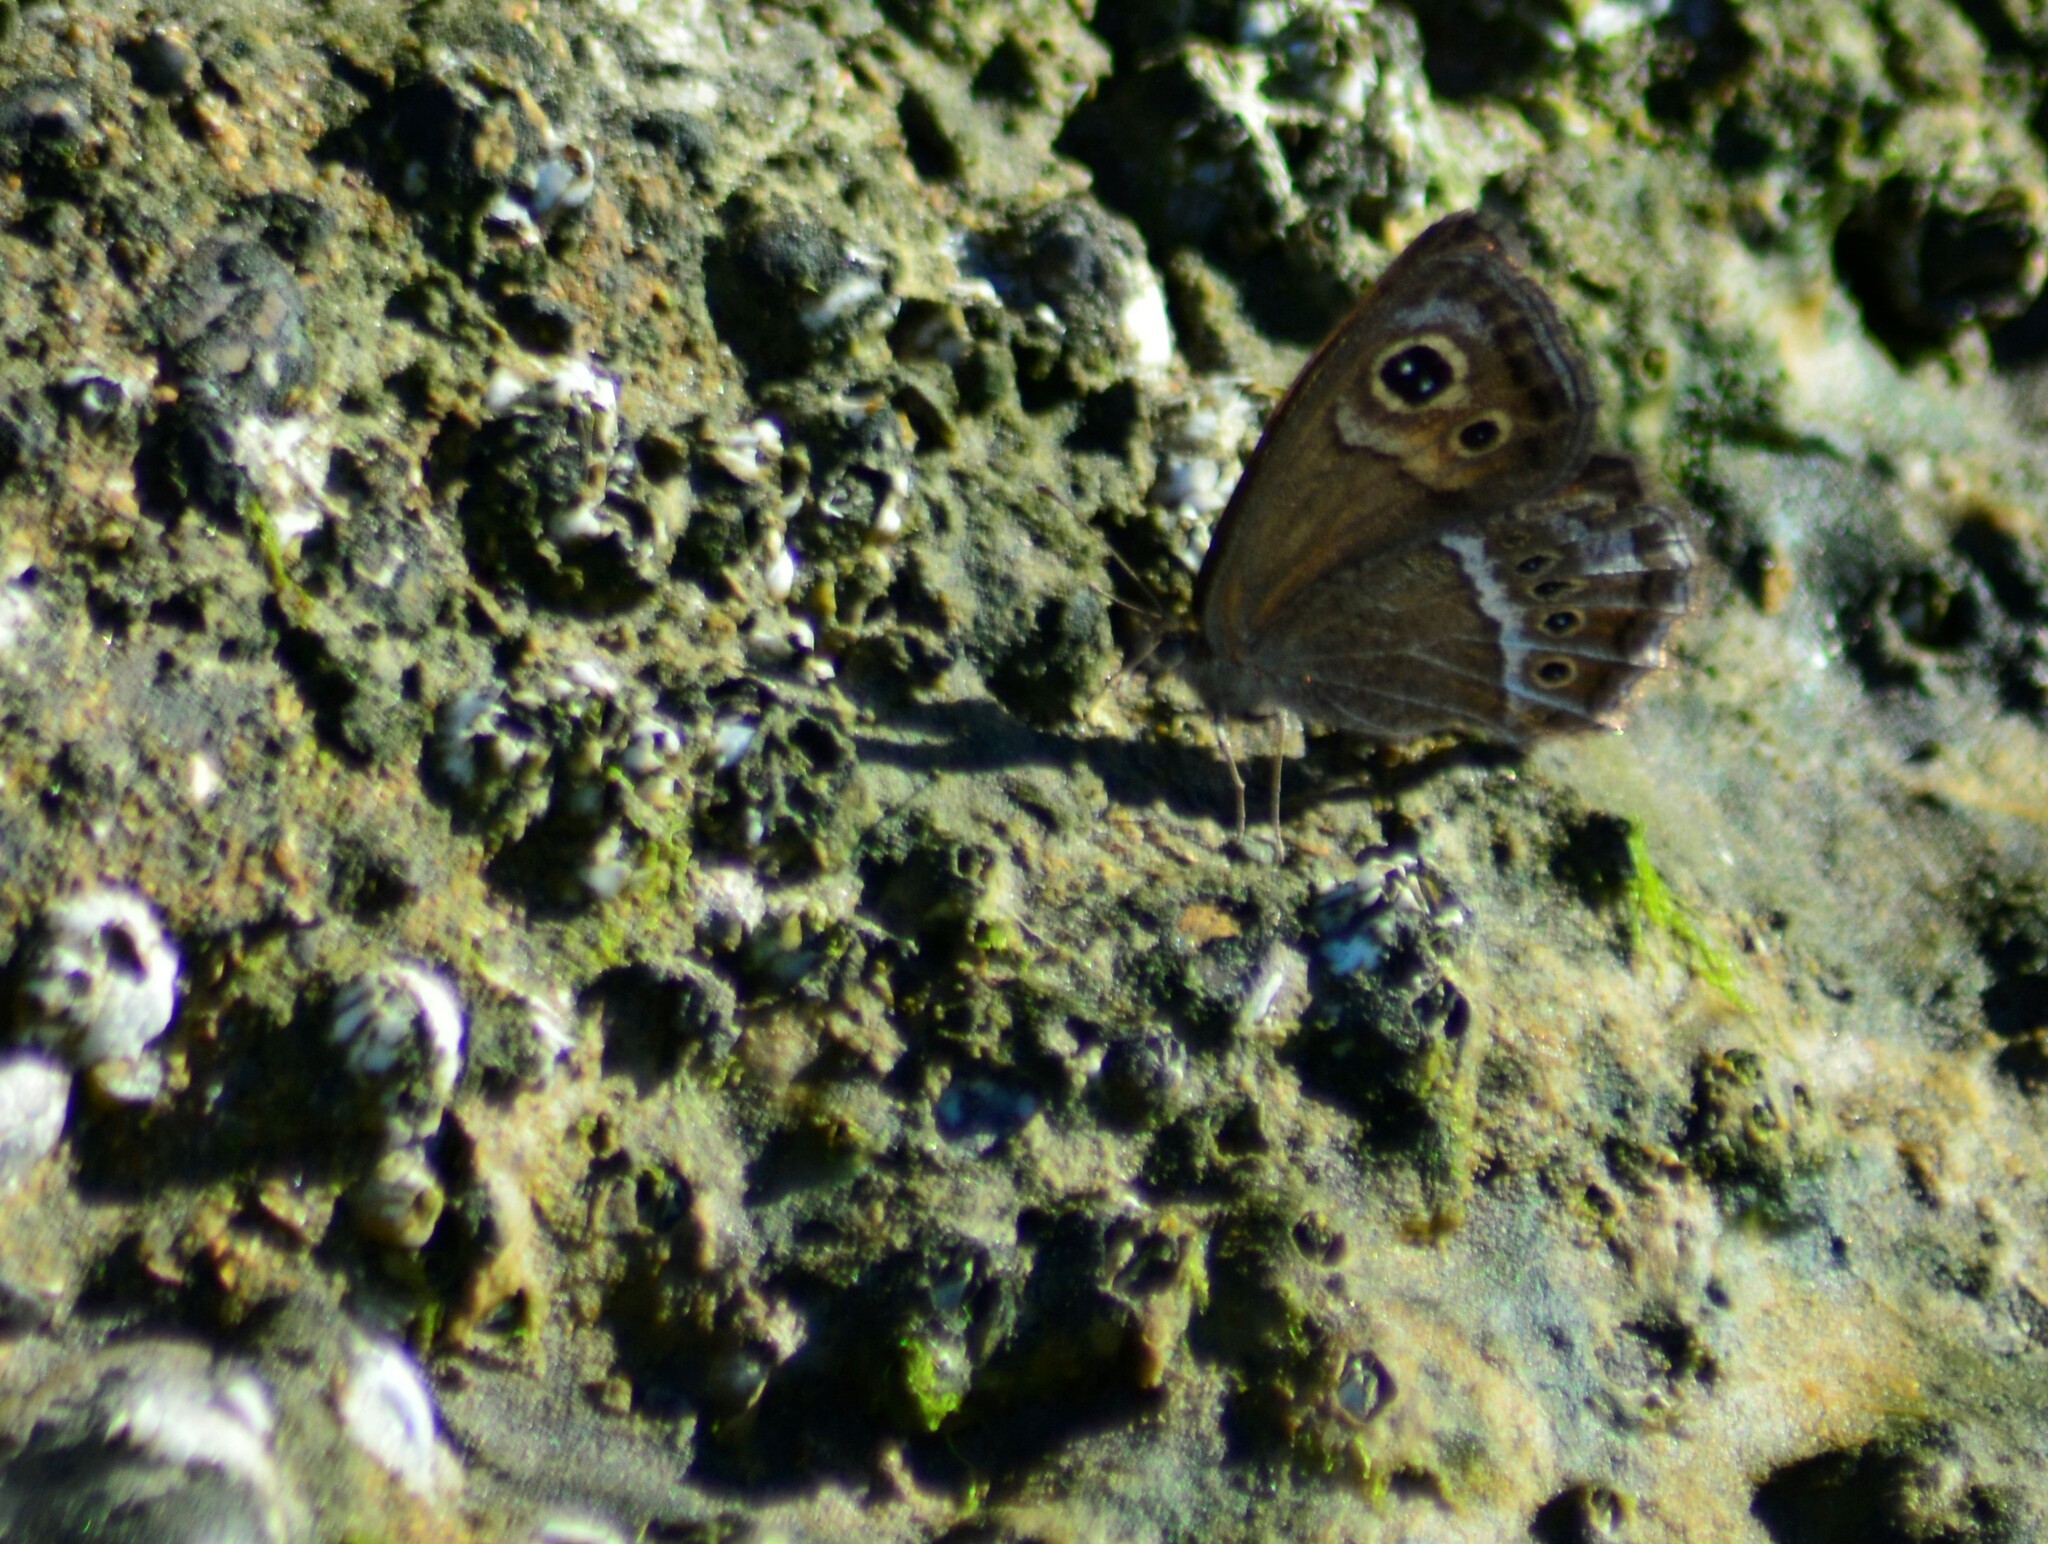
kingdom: Animalia
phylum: Arthropoda
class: Insecta
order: Lepidoptera
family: Nymphalidae
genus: Pampasatyrus
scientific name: Pampasatyrus gyrtone
